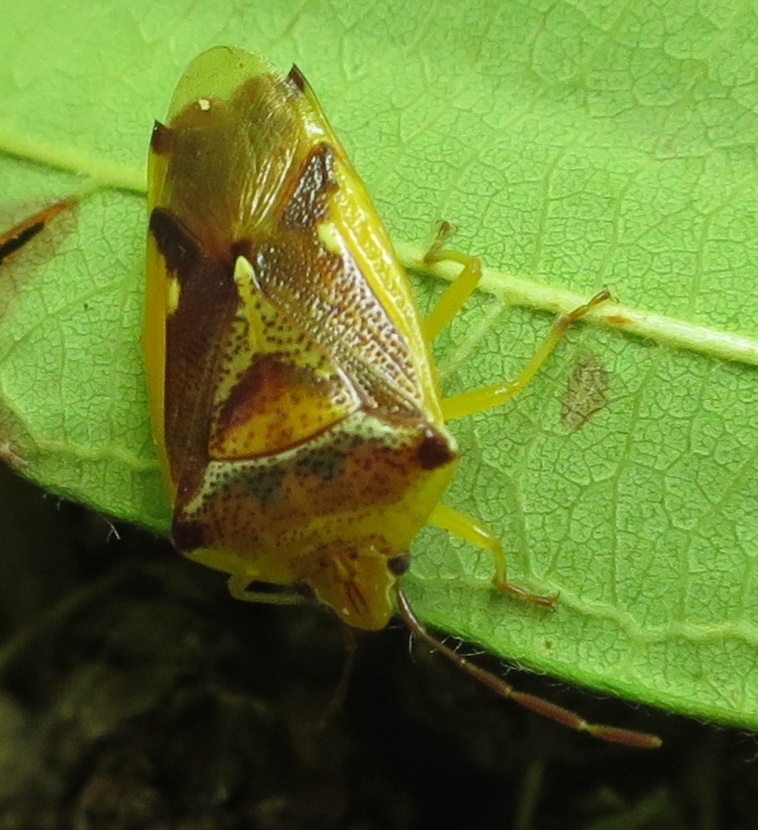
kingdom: Animalia
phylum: Arthropoda
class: Insecta
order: Hemiptera
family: Acanthosomatidae
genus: Oncacontias
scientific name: Oncacontias vittatus
